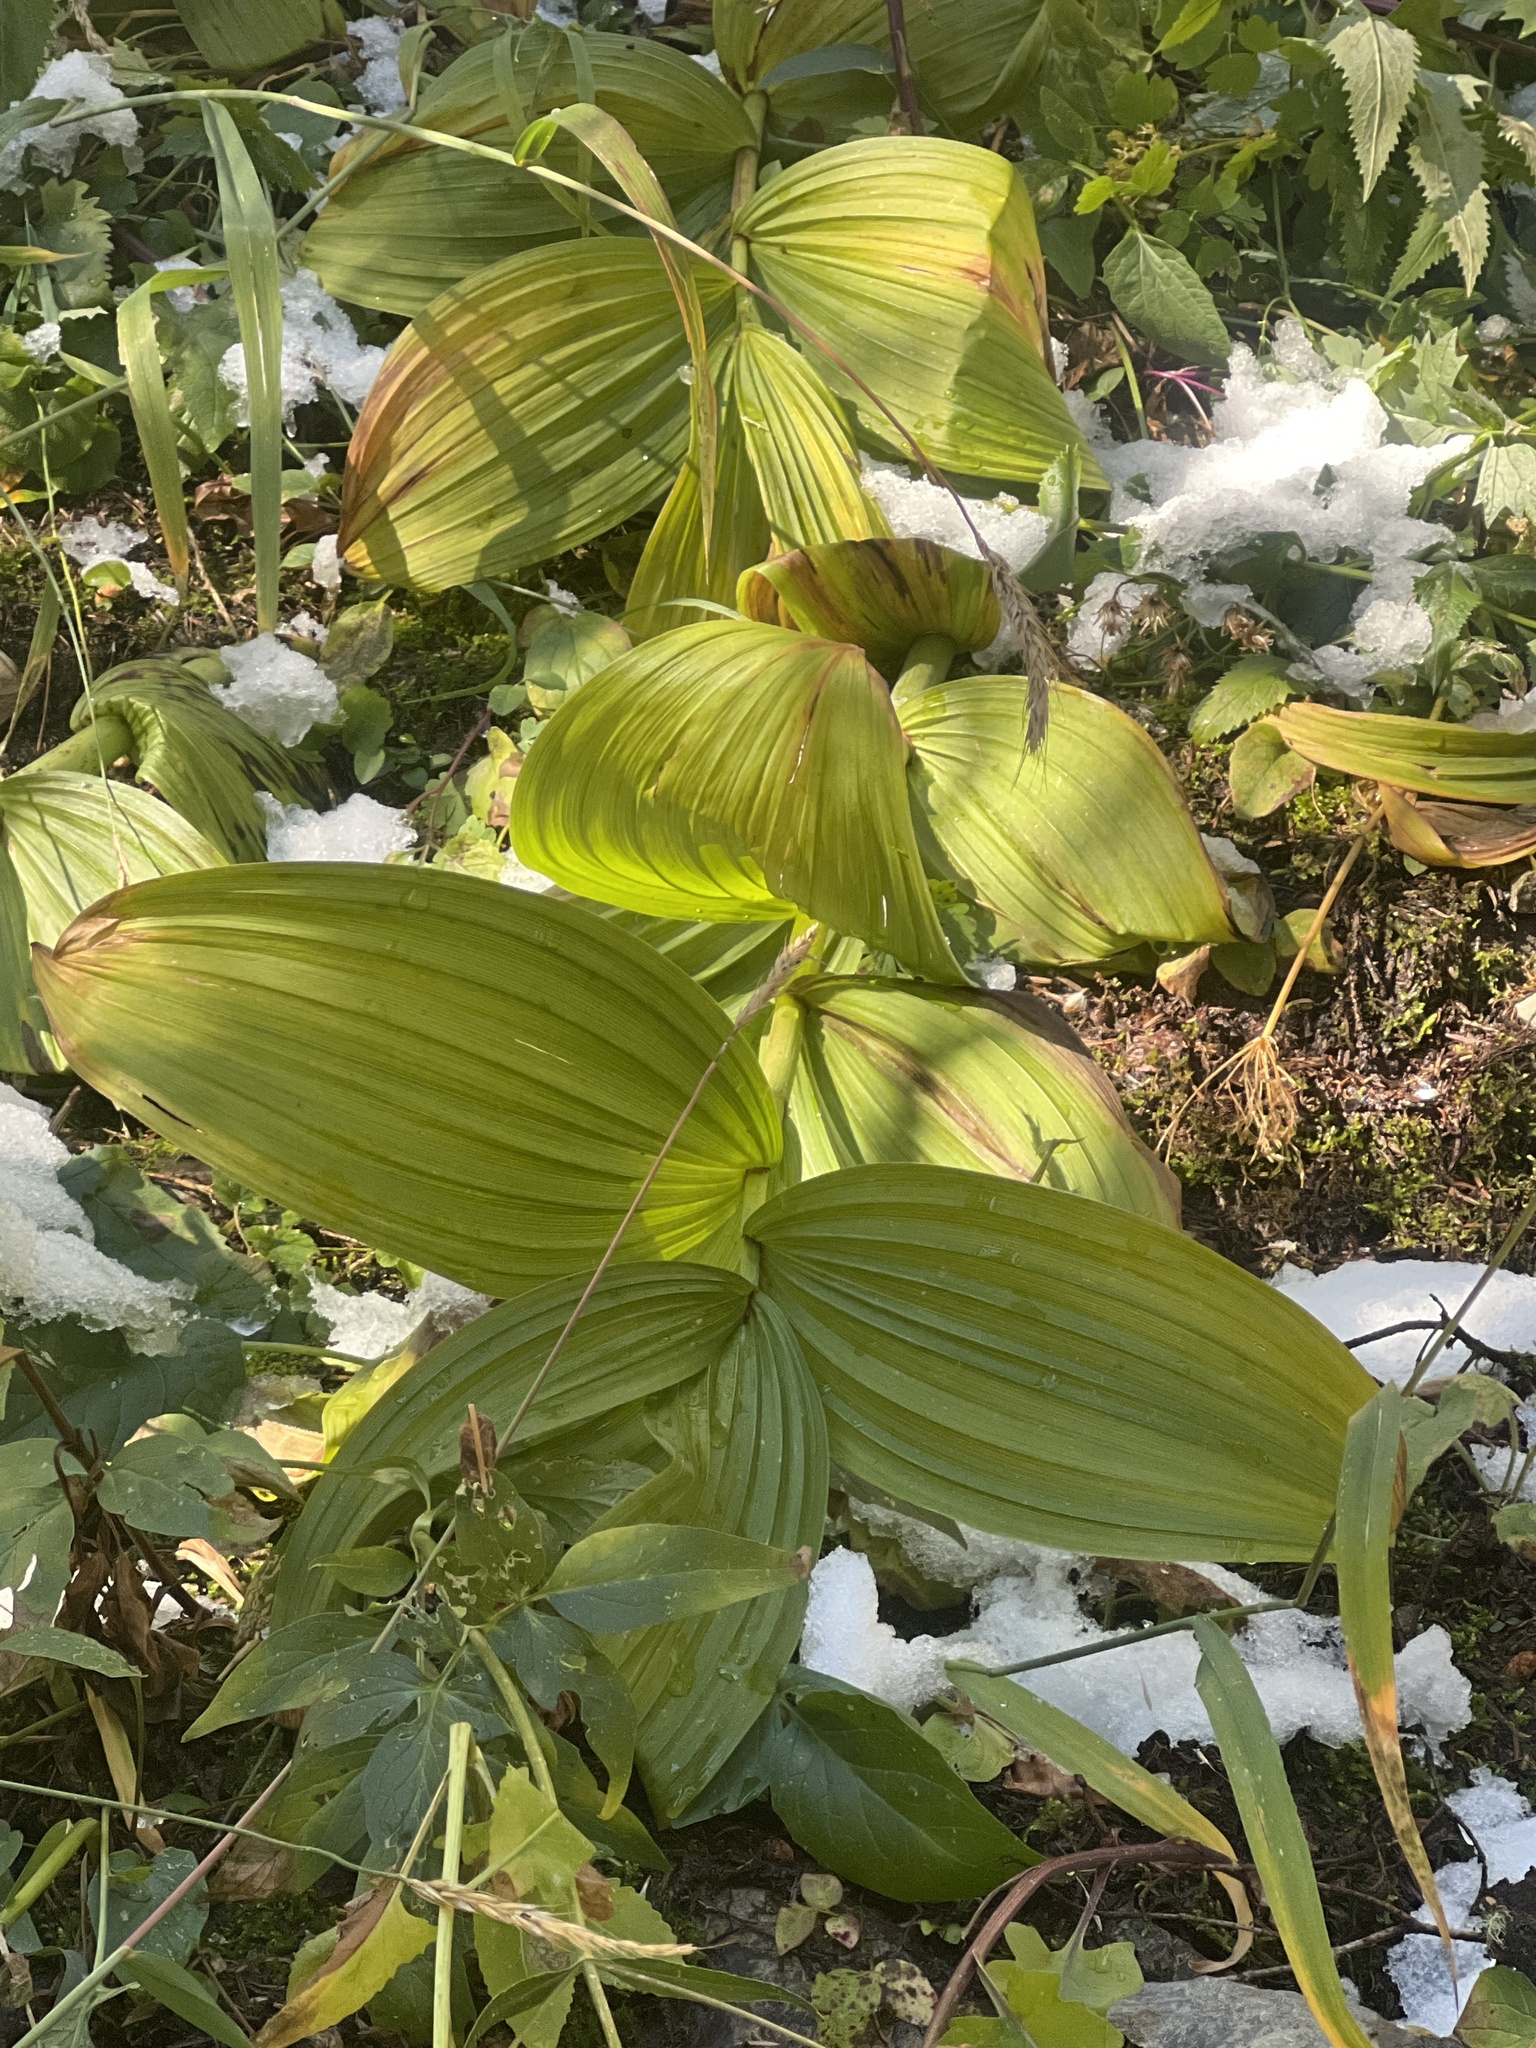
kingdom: Plantae
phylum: Tracheophyta
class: Liliopsida
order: Liliales
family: Melanthiaceae
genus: Veratrum
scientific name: Veratrum viride
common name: American false hellebore
